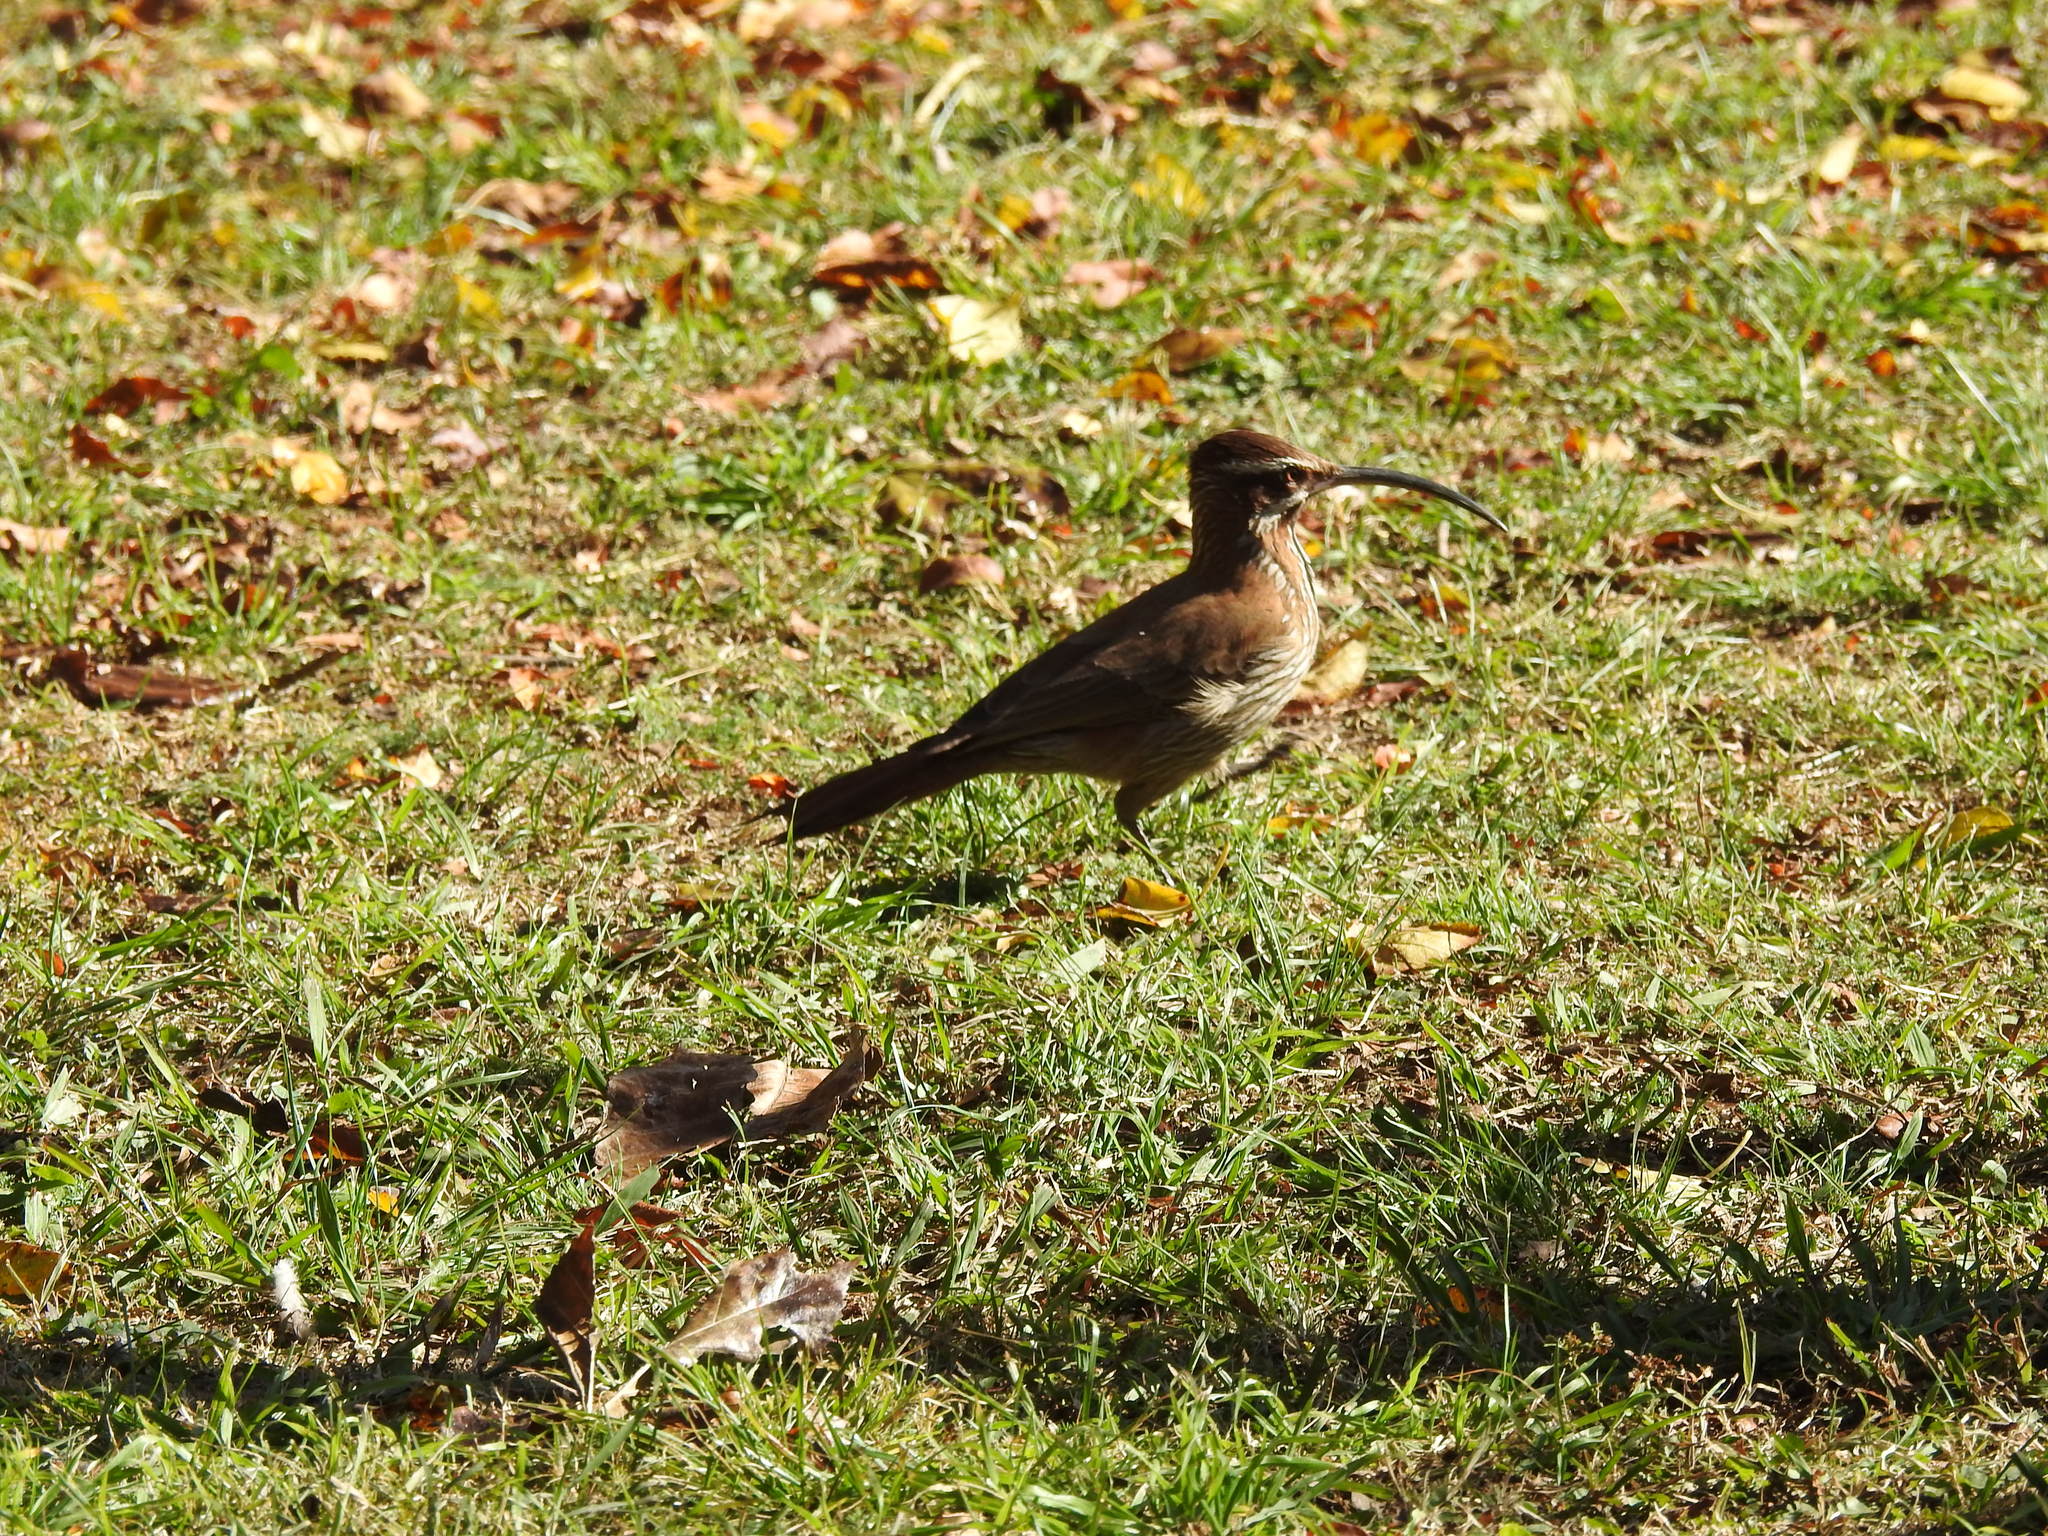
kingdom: Animalia
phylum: Chordata
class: Aves
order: Passeriformes
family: Furnariidae
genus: Drymornis
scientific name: Drymornis bridgesii
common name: Scimitar-billed woodcreeper
